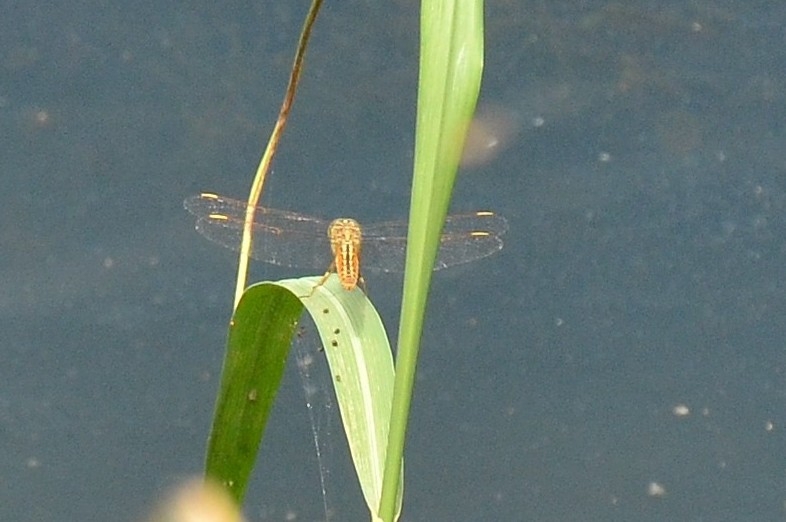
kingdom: Animalia
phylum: Arthropoda
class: Insecta
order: Odonata
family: Libellulidae
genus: Brachythemis
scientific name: Brachythemis contaminata
